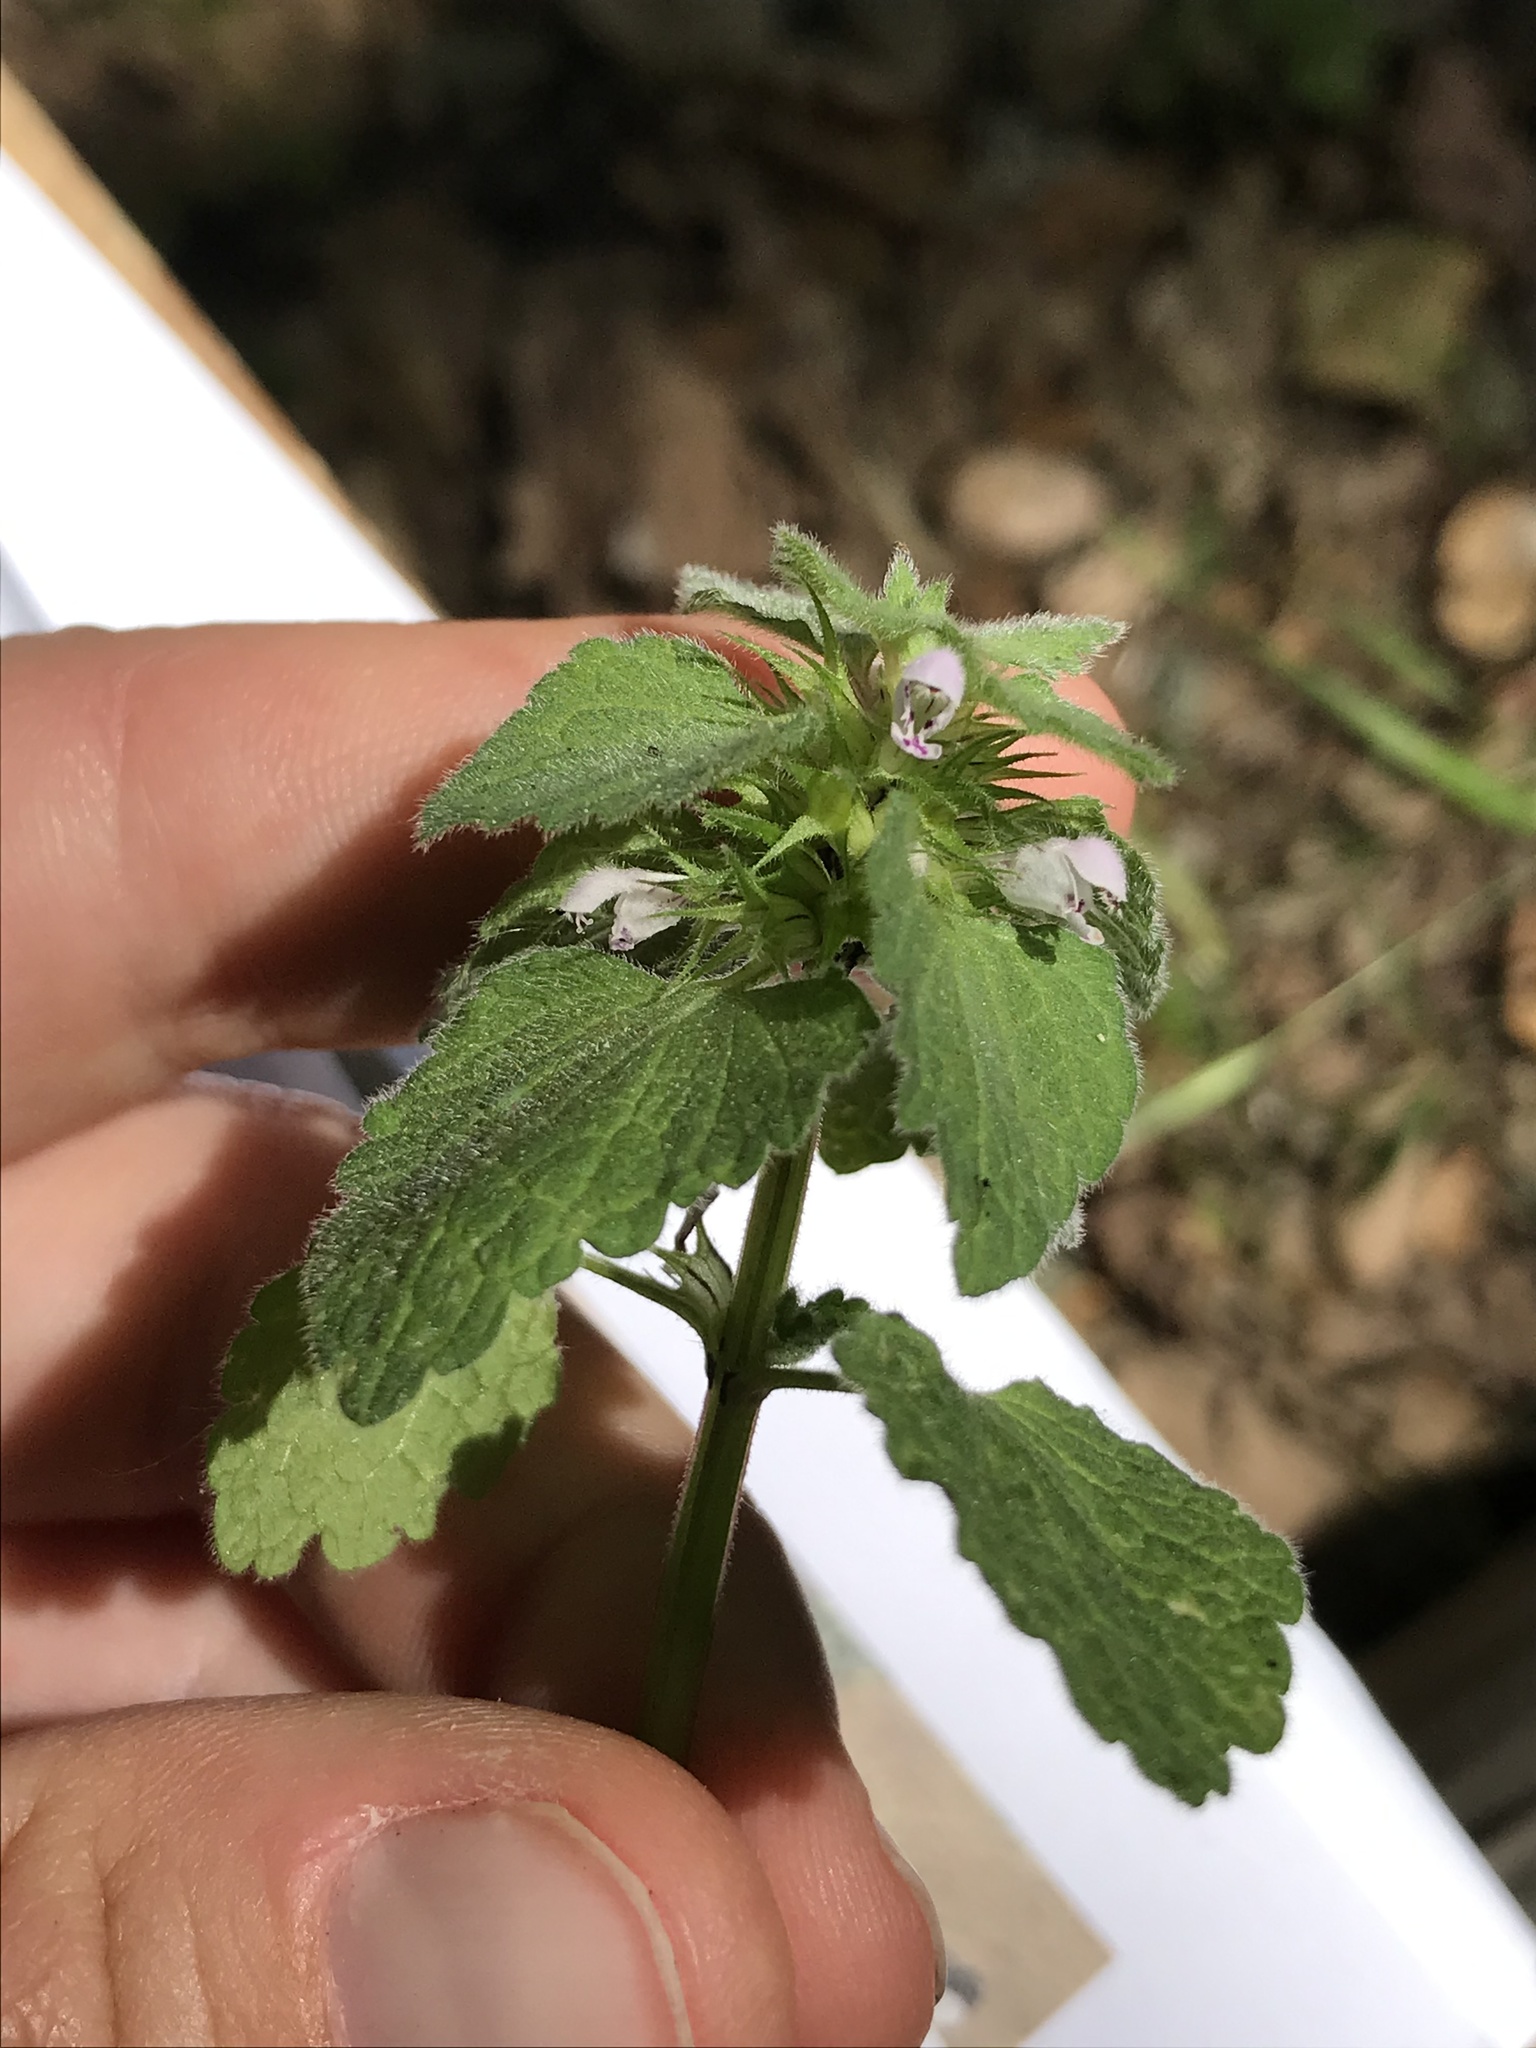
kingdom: Plantae
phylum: Tracheophyta
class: Magnoliopsida
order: Lamiales
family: Lamiaceae
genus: Lamium
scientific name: Lamium purpureum
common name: Red dead-nettle
